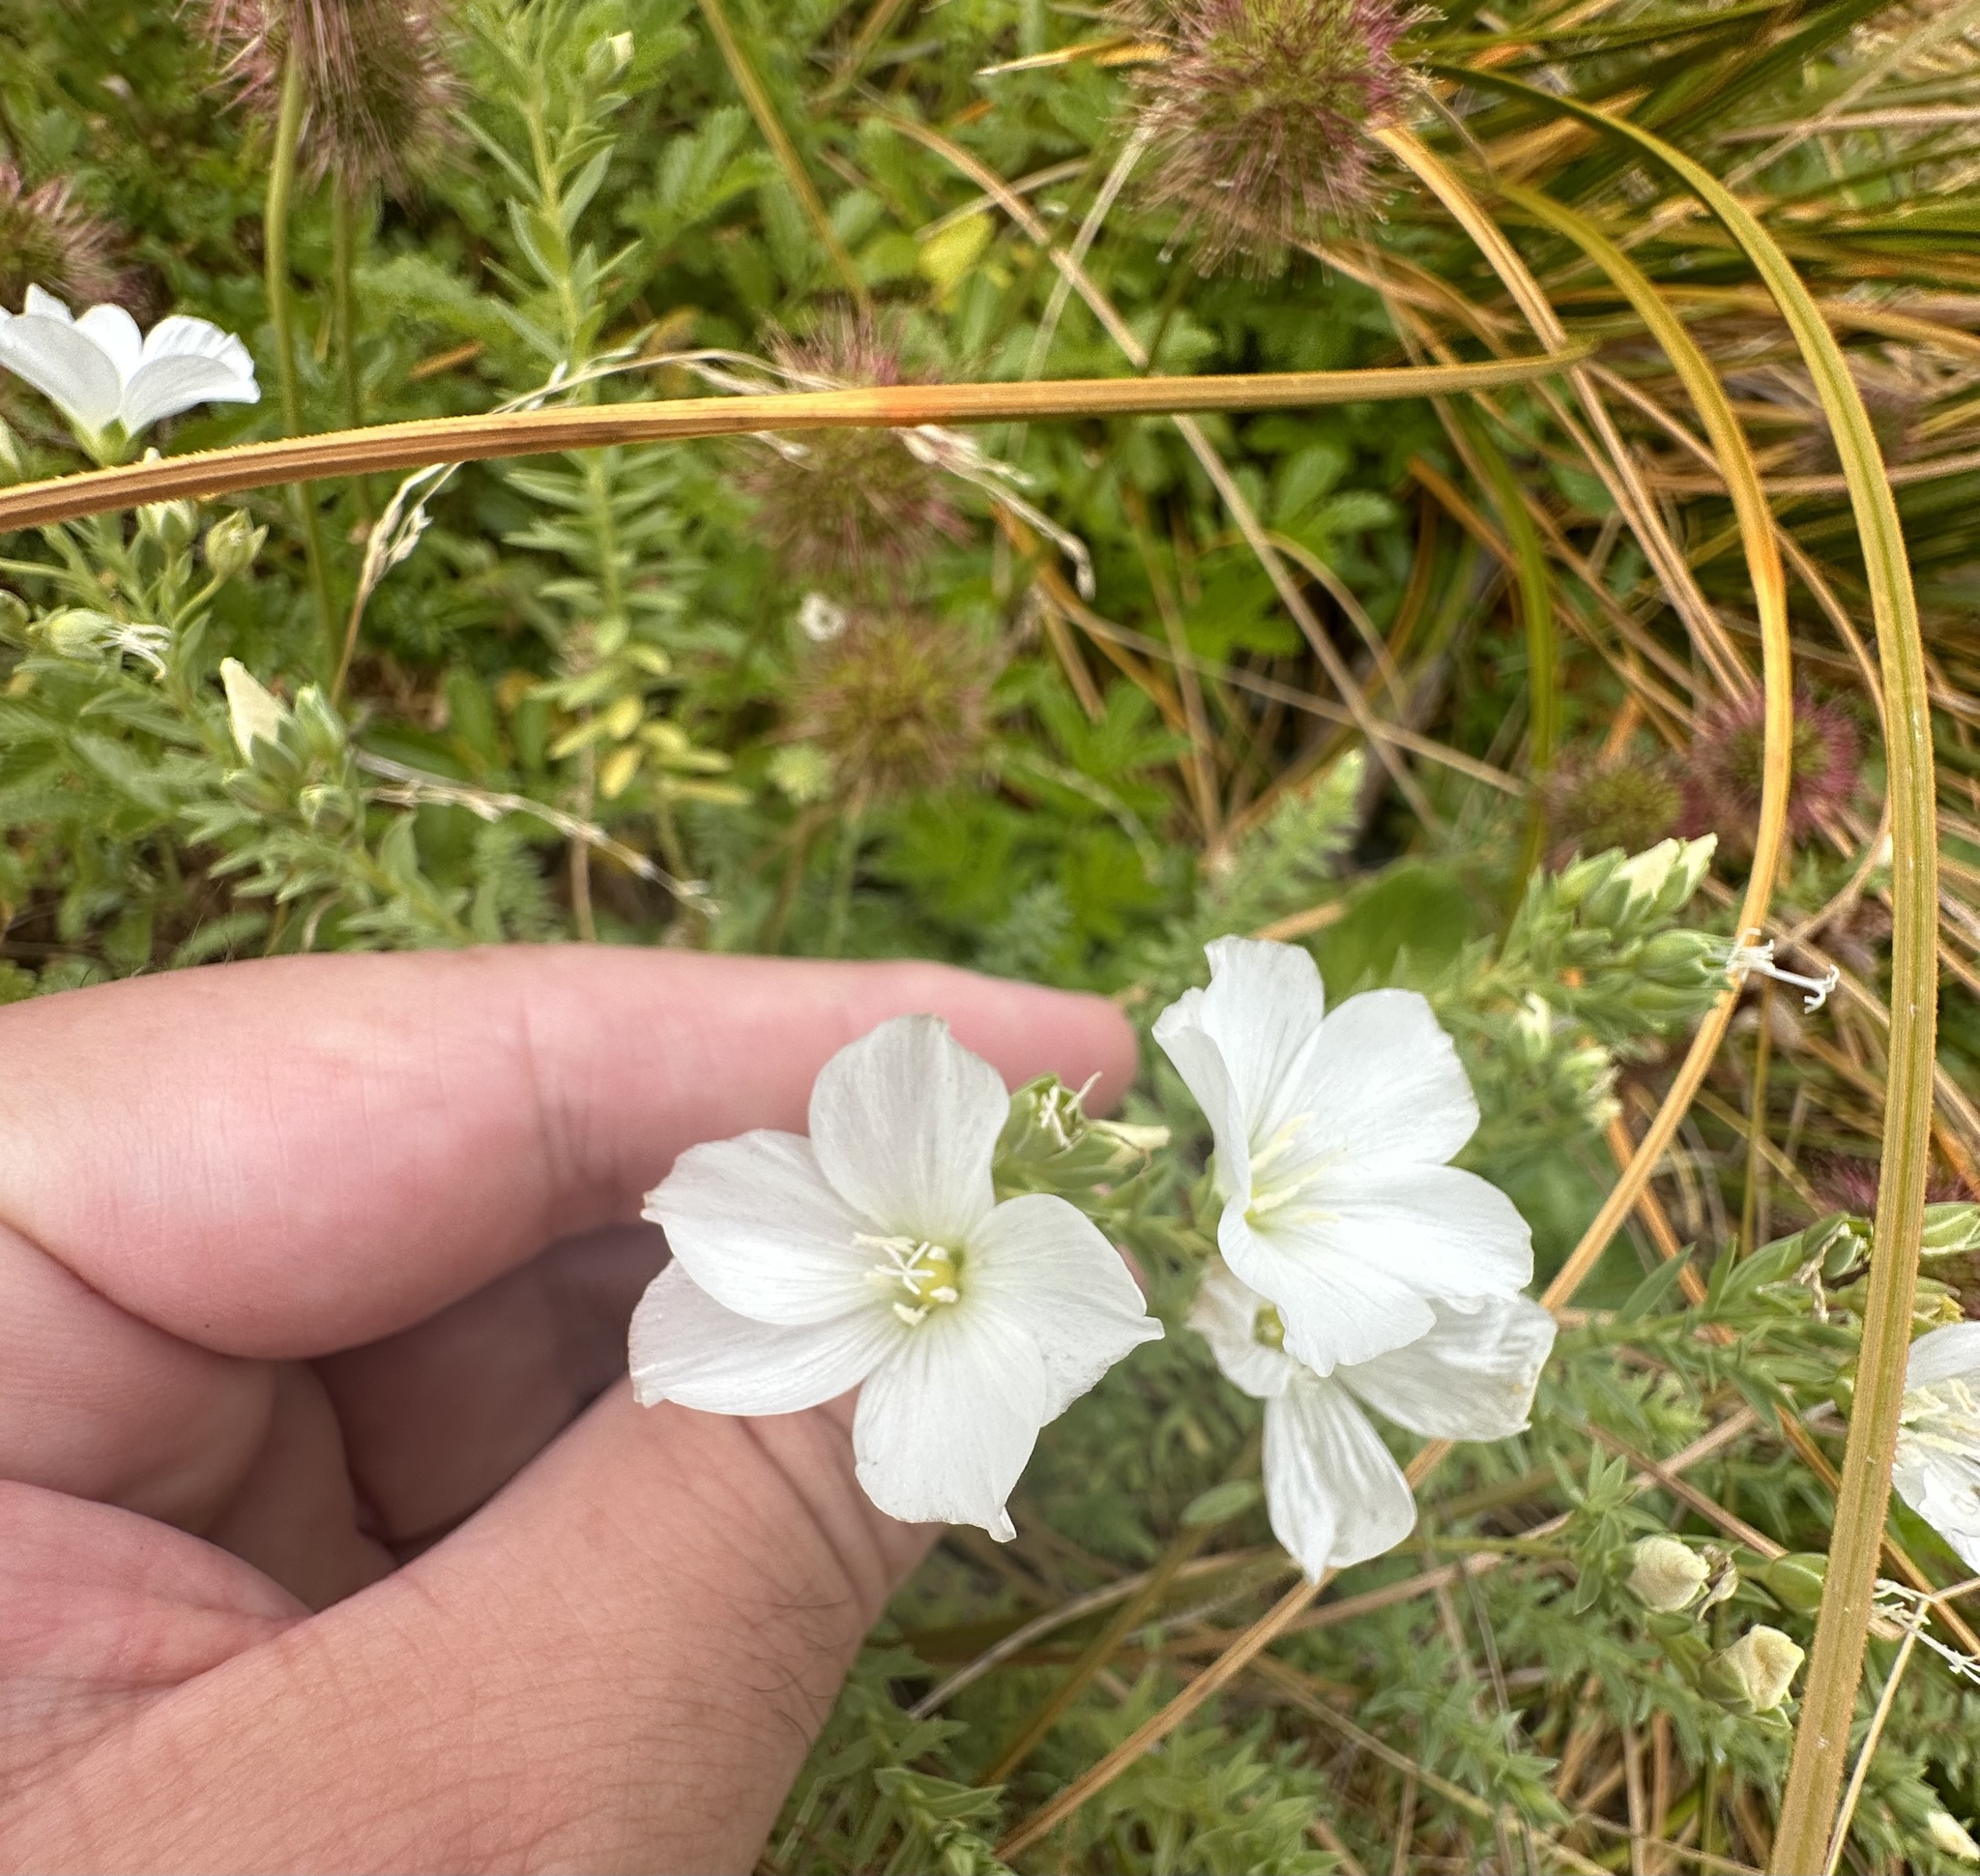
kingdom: Plantae
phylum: Tracheophyta
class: Magnoliopsida
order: Malpighiales
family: Linaceae
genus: Linum
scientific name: Linum monogynum
